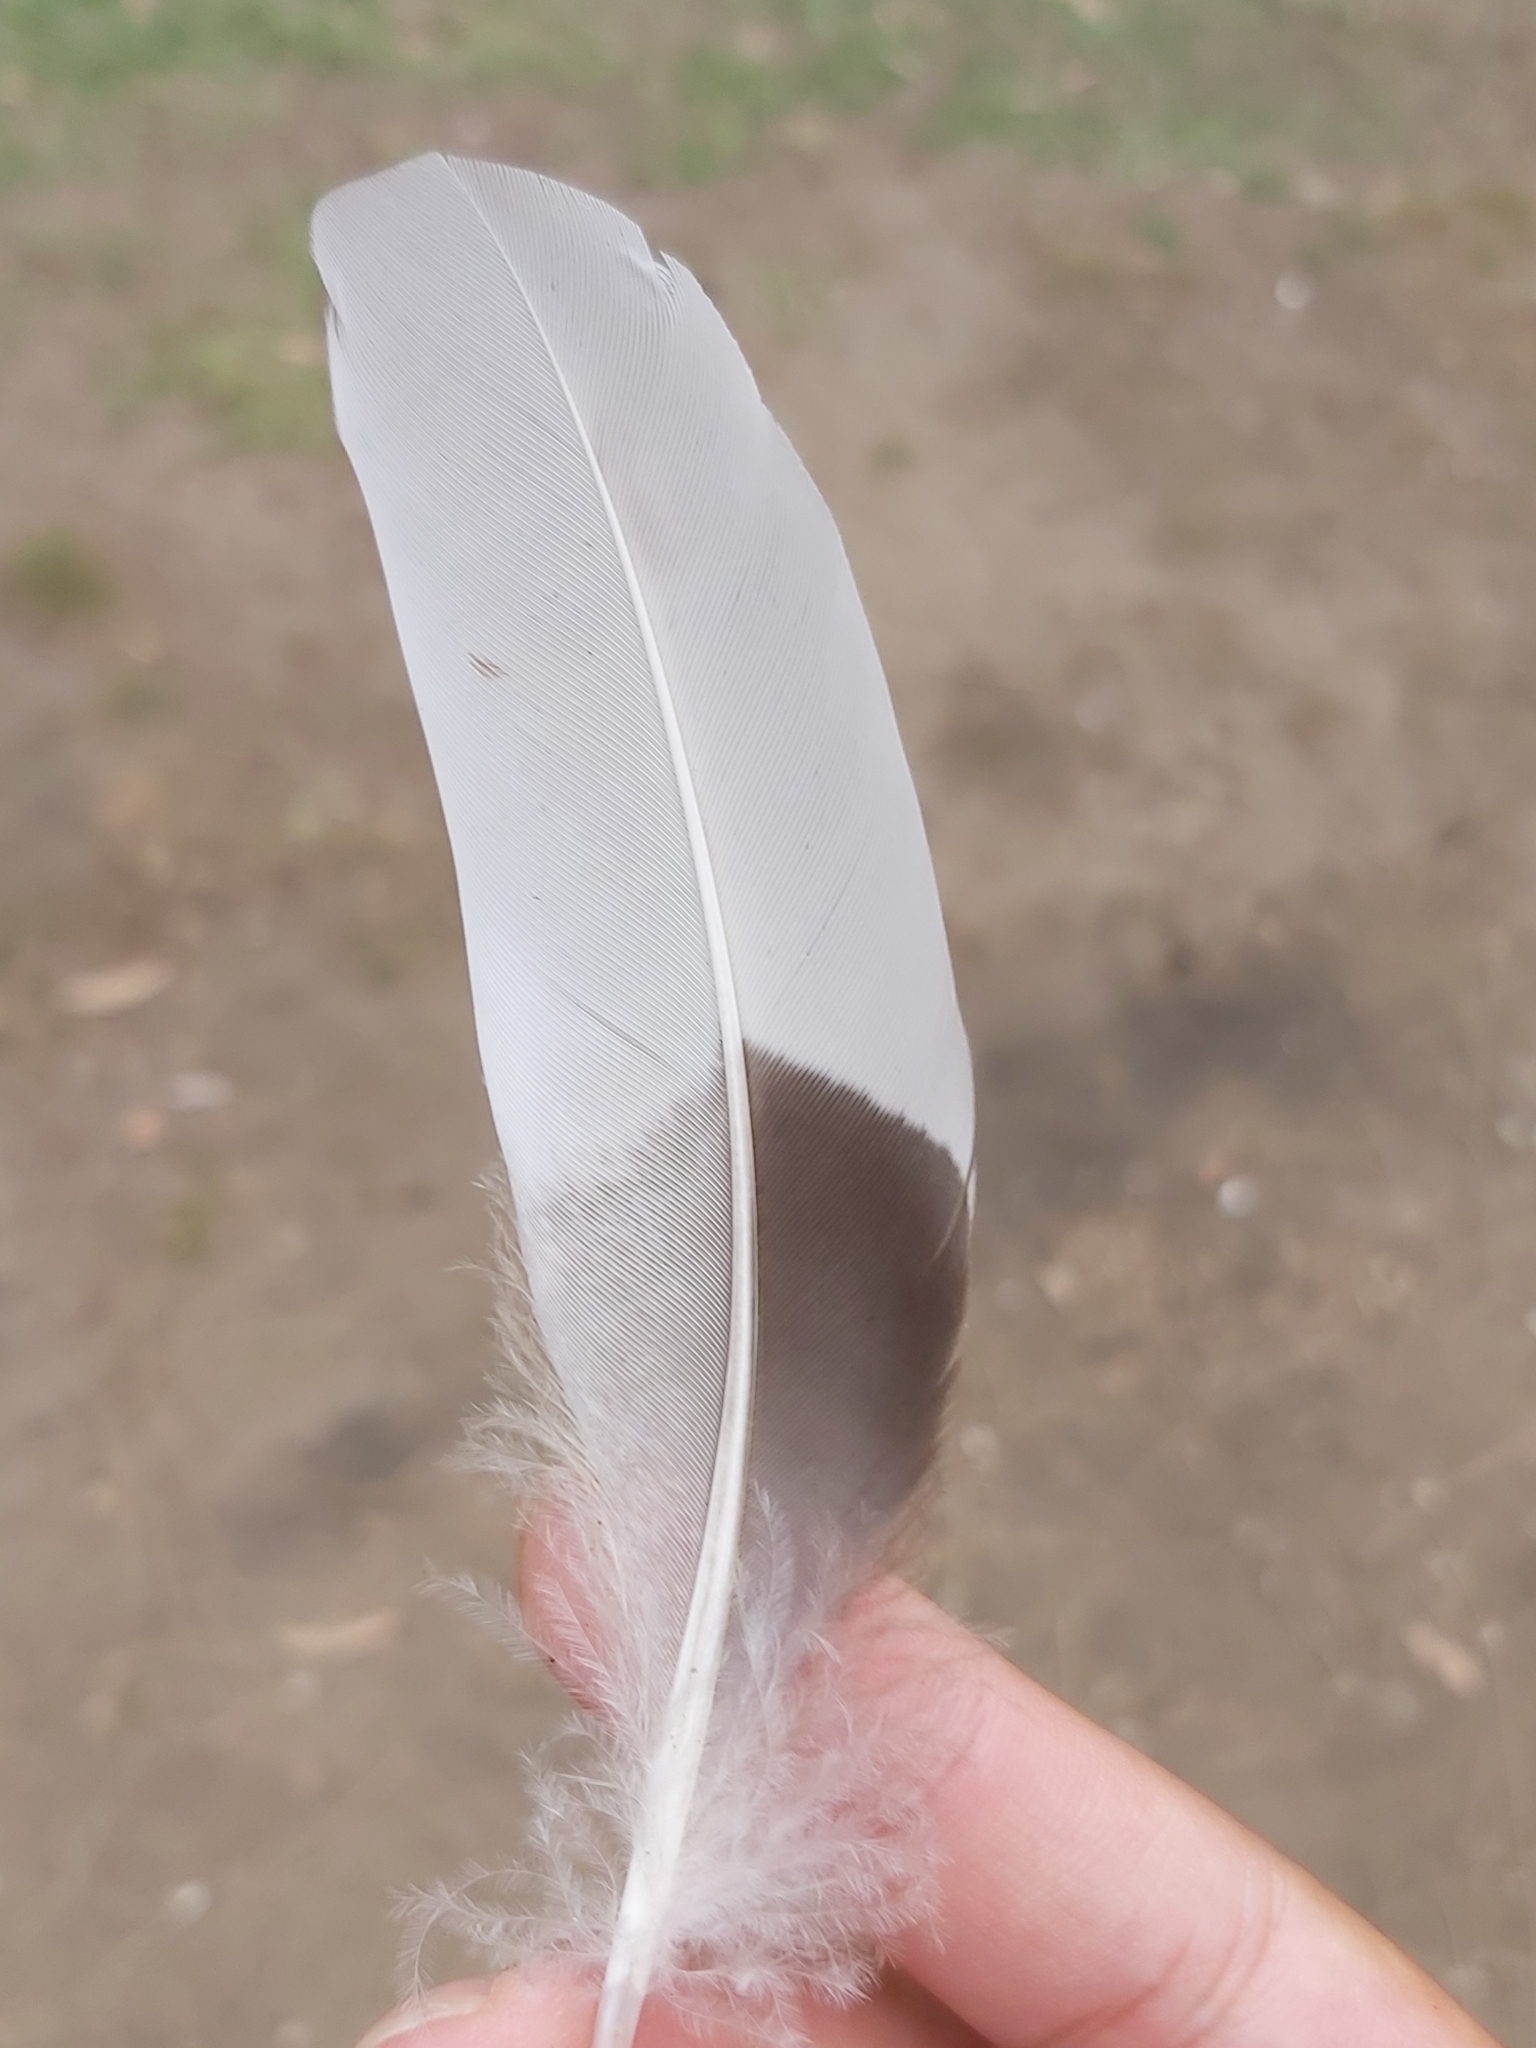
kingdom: Animalia
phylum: Chordata
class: Aves
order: Anseriformes
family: Anatidae
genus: Chenonetta
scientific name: Chenonetta jubata
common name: Maned duck
